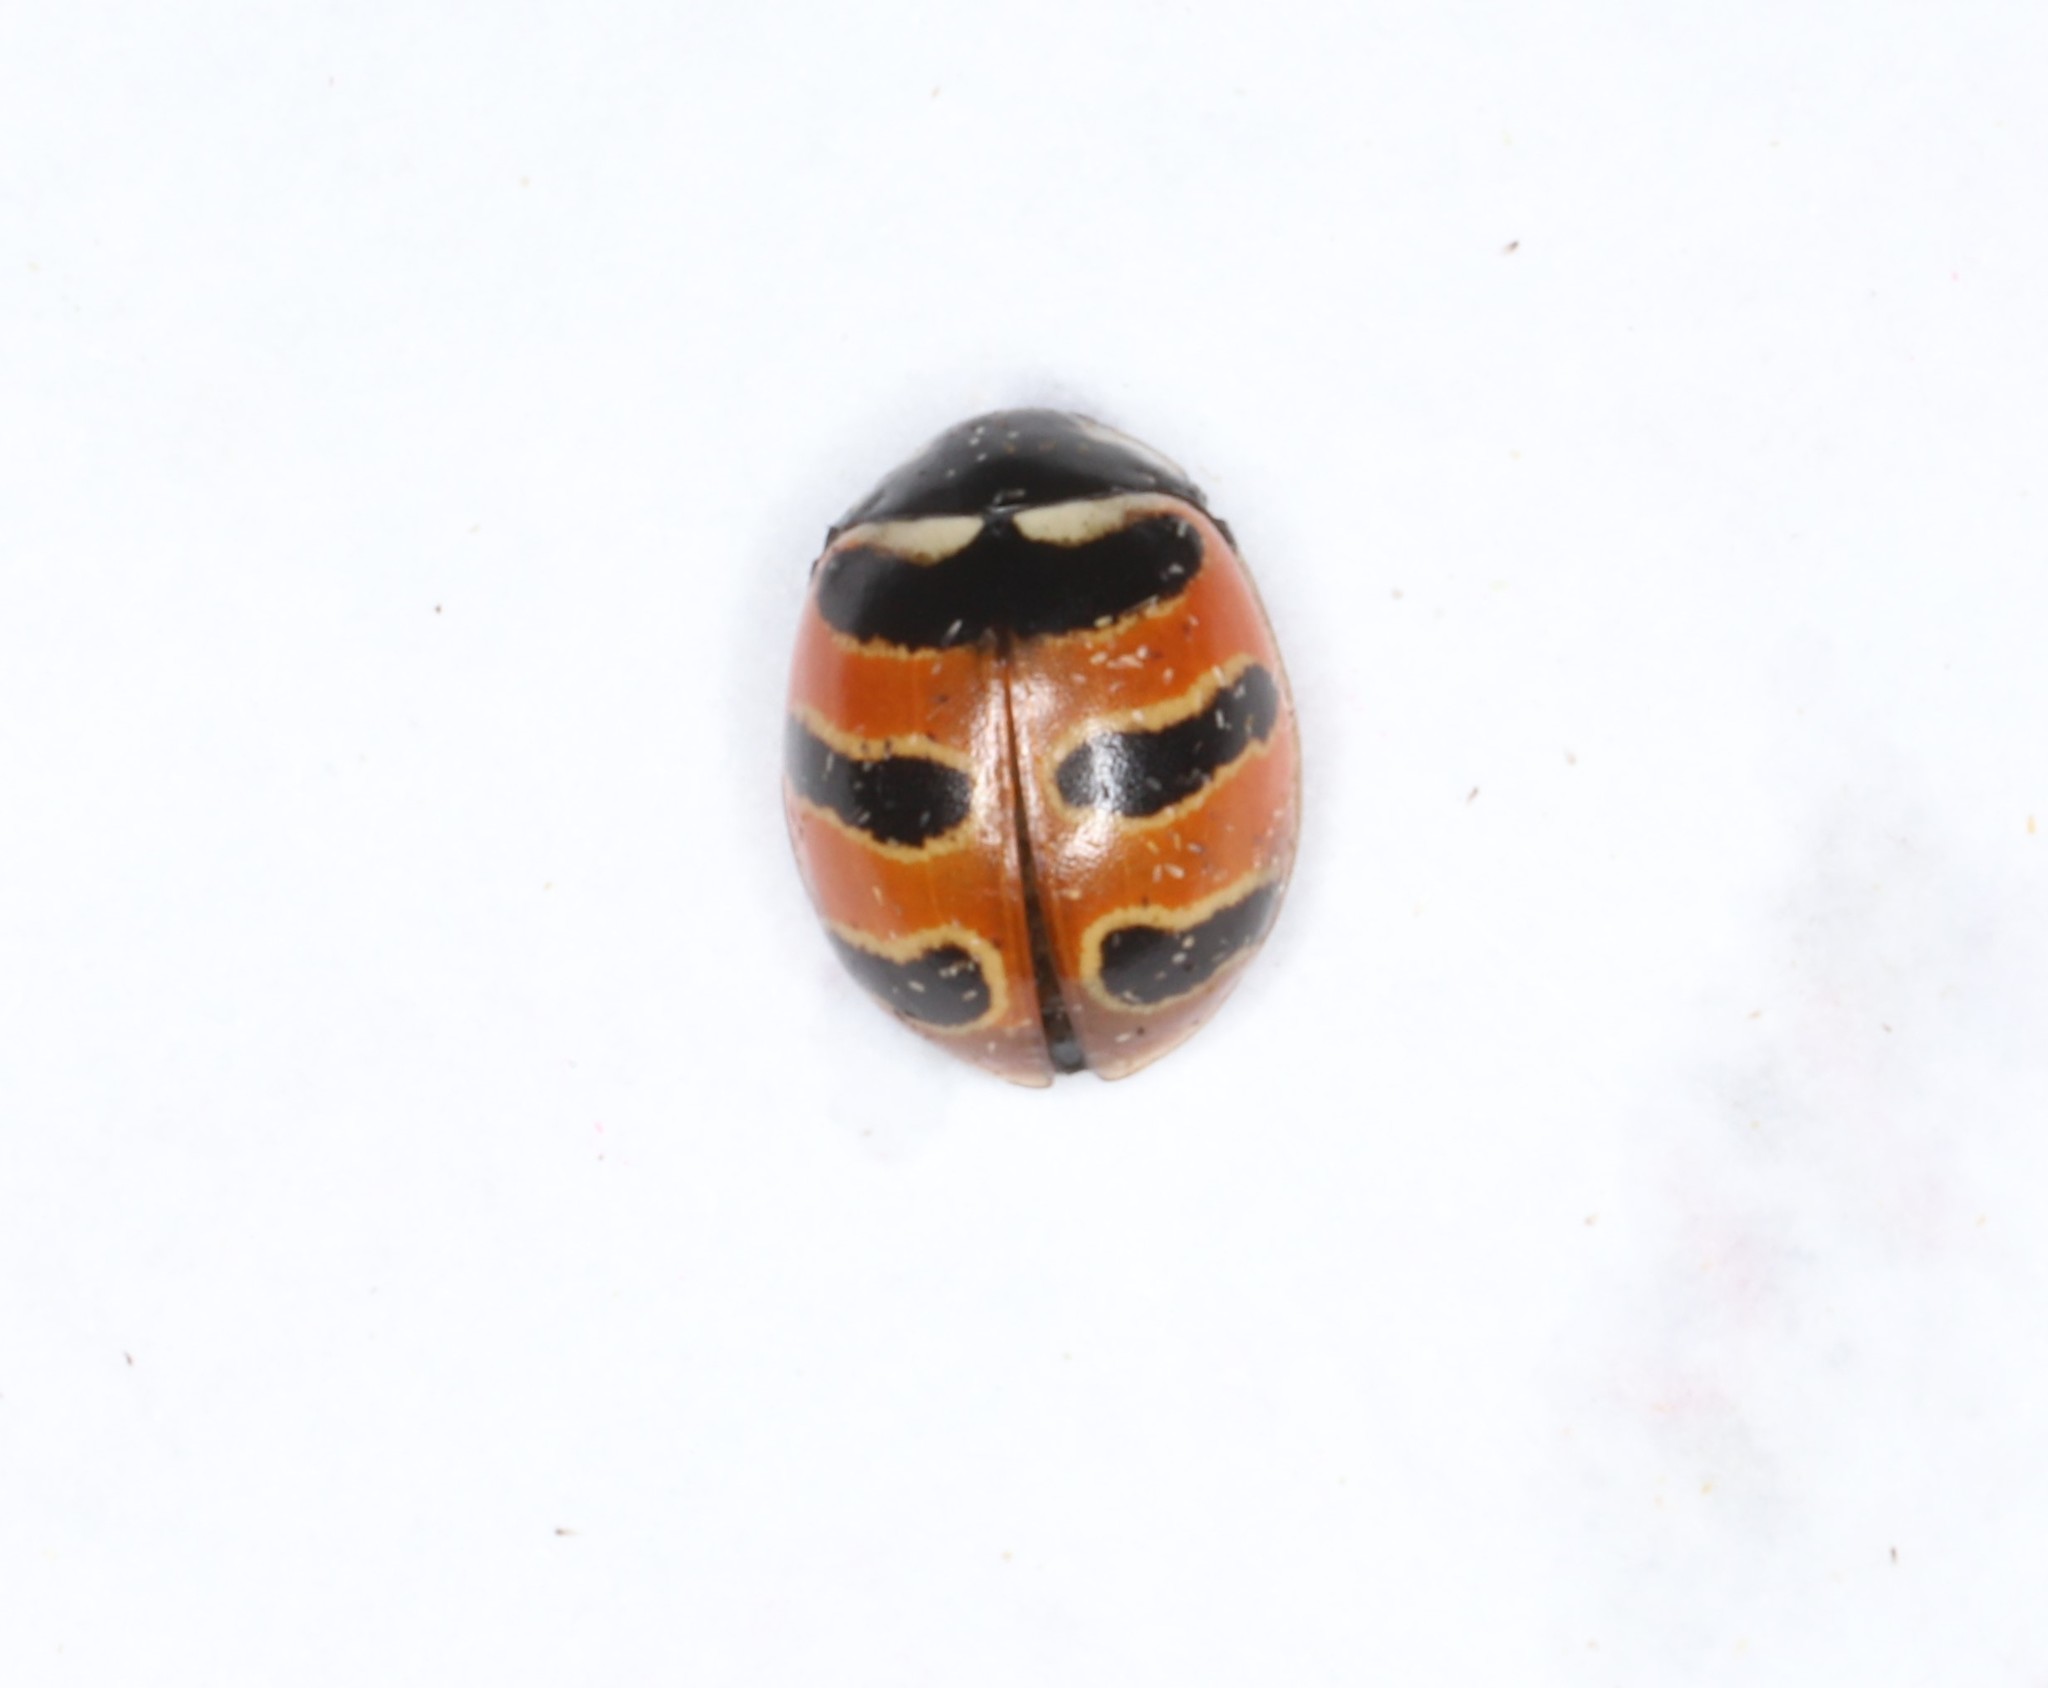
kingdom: Animalia
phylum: Arthropoda
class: Insecta
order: Coleoptera
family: Coccinellidae
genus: Coccinella
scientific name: Coccinella trifasciata
